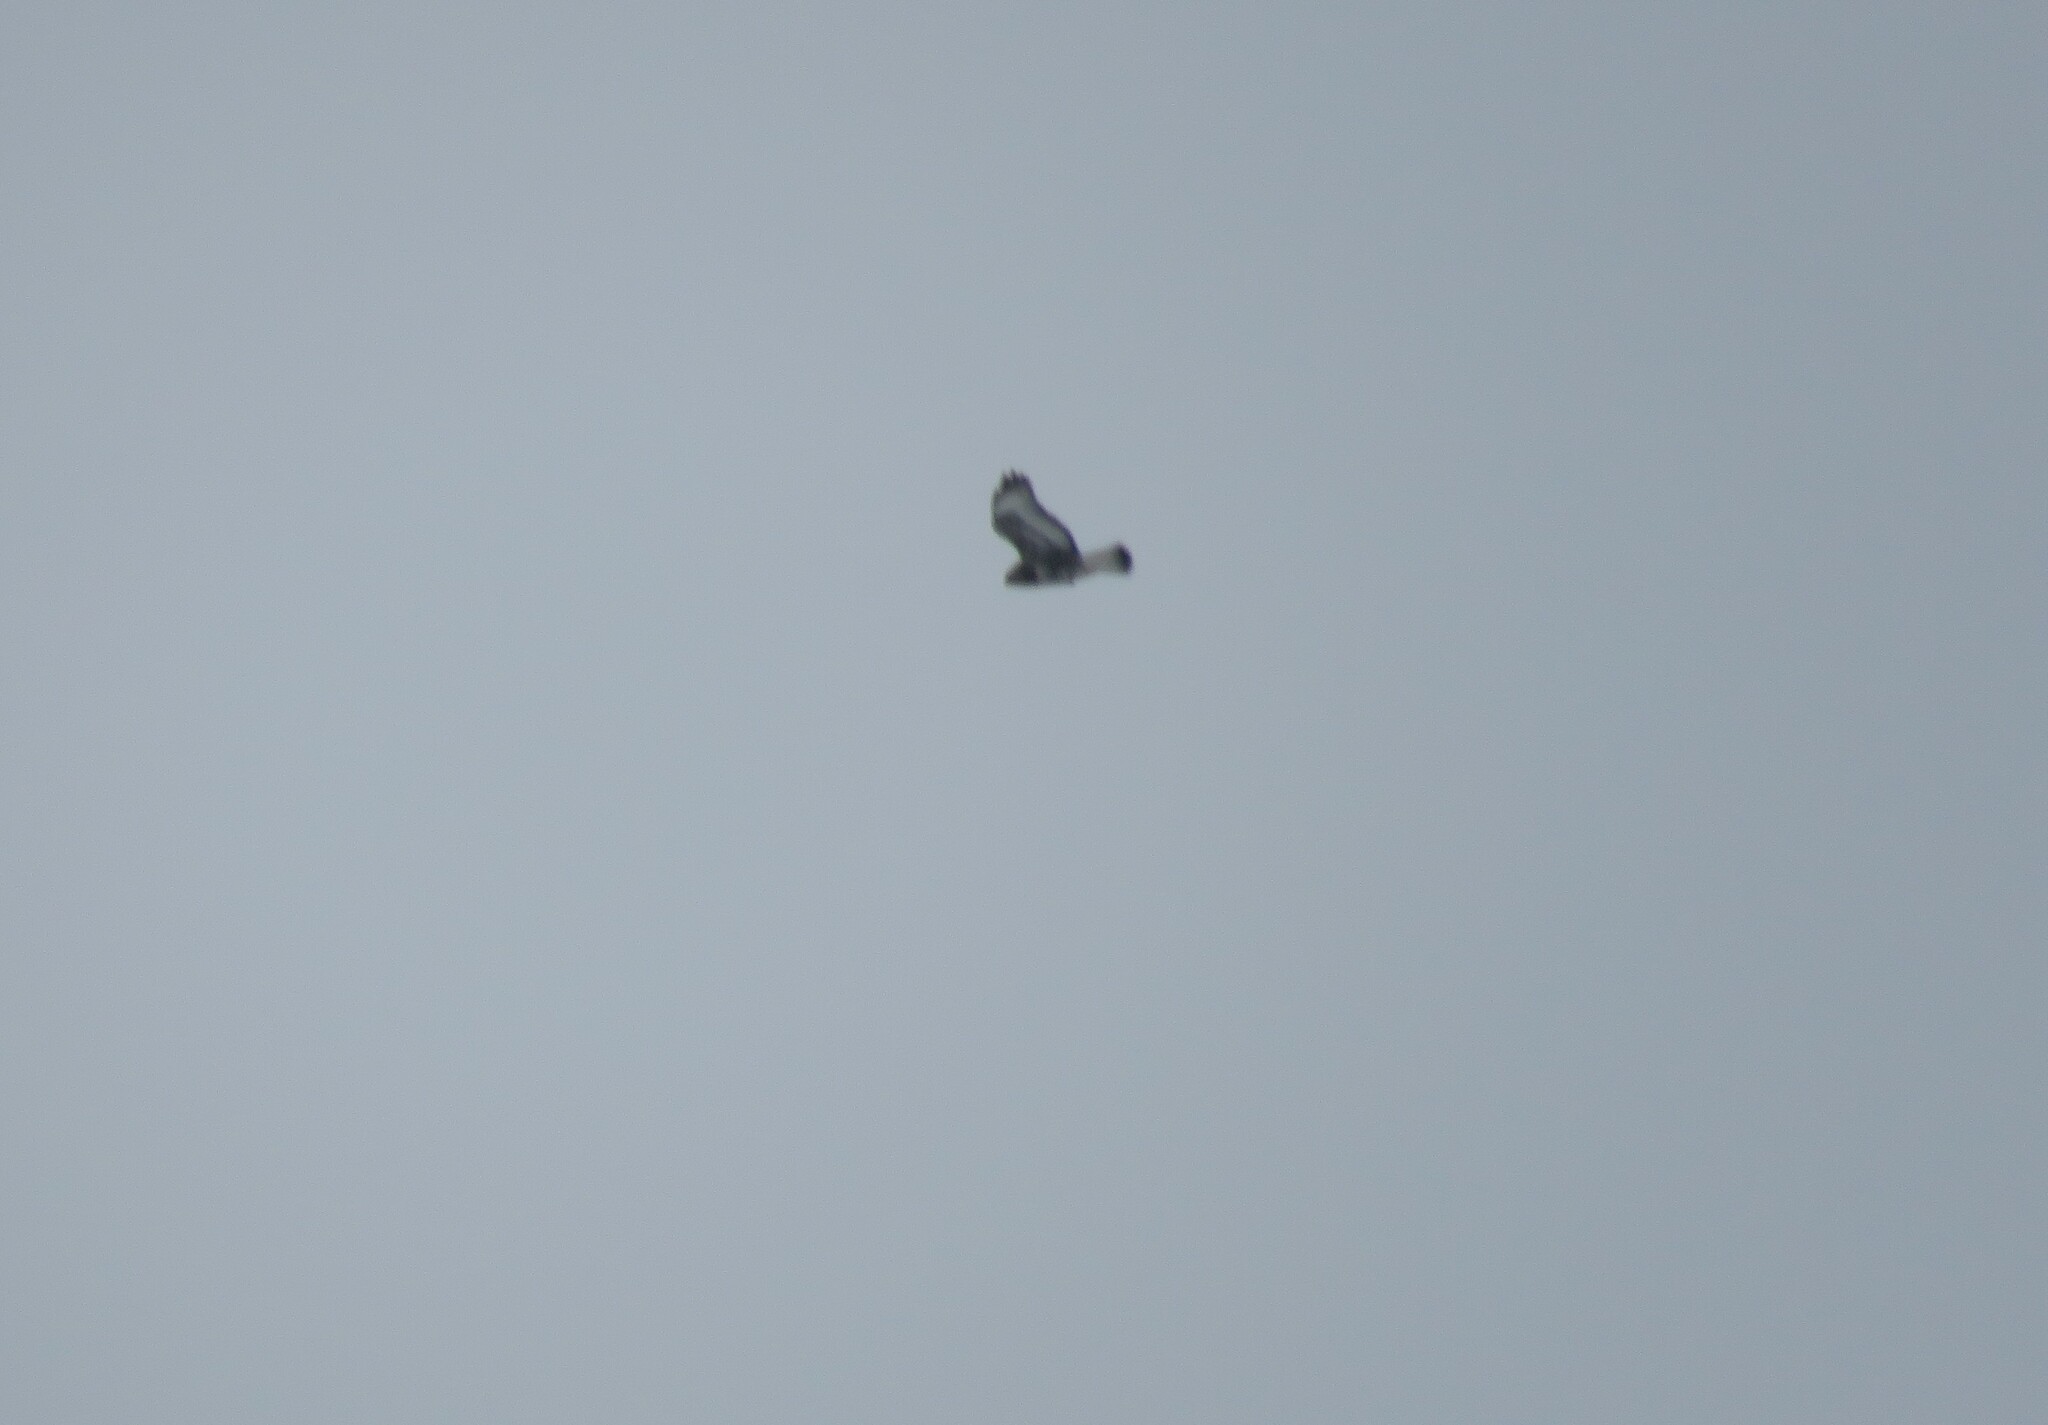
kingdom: Animalia
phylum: Chordata
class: Aves
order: Accipitriformes
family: Accipitridae
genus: Buteo
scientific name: Buteo lagopus
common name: Rough-legged buzzard
